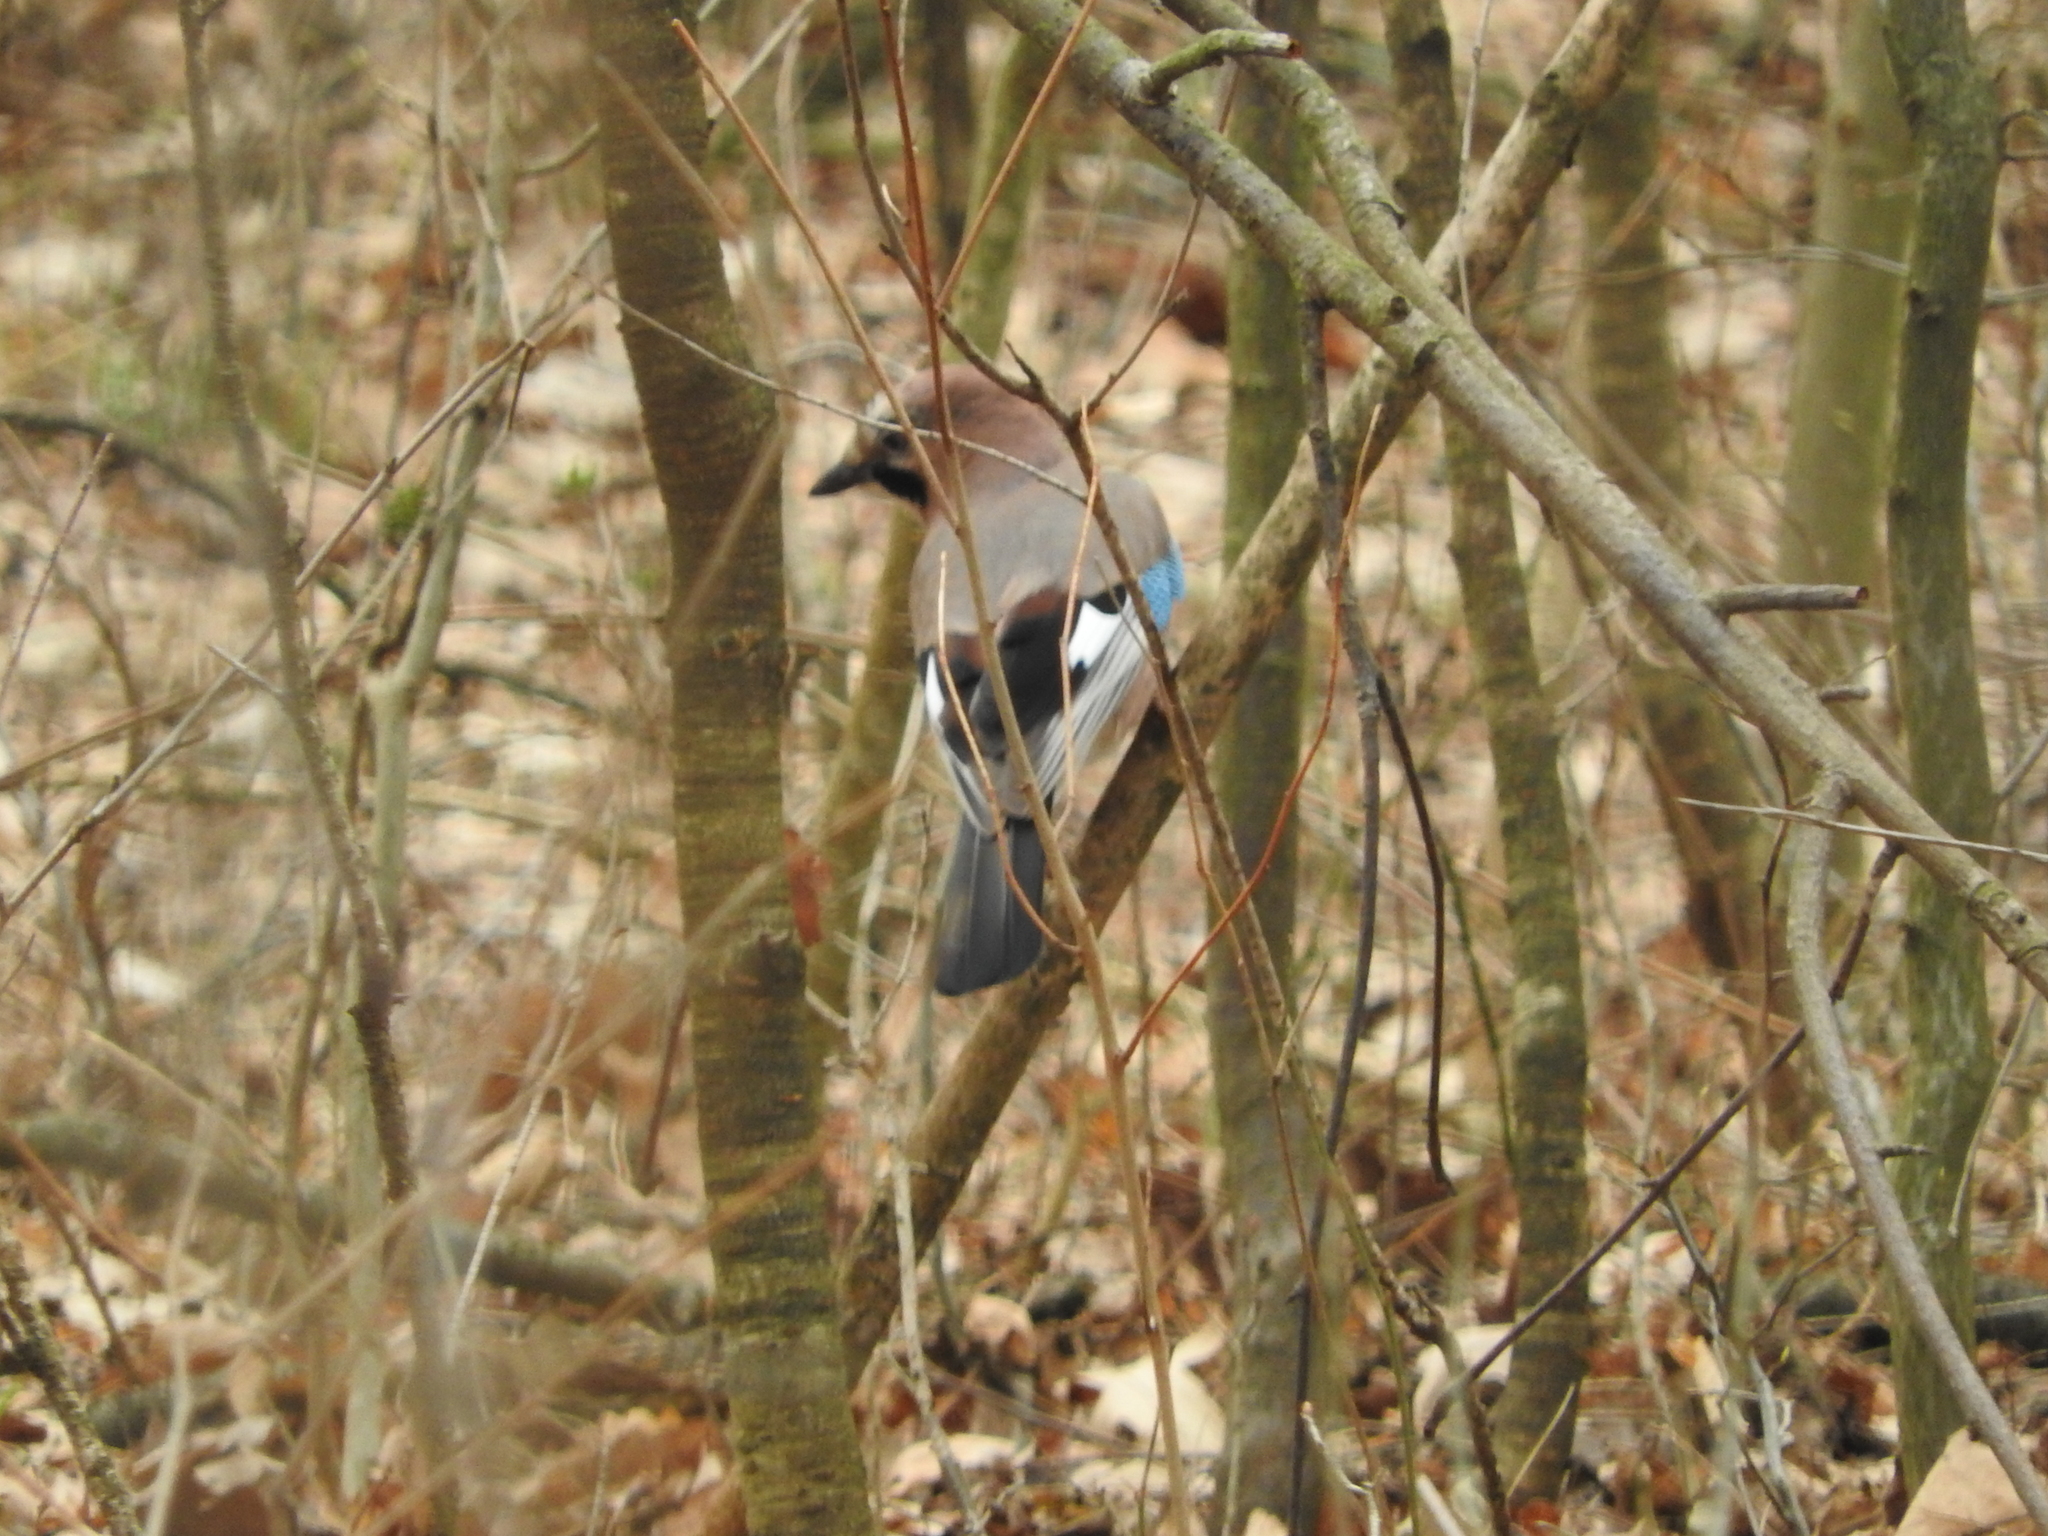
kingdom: Animalia
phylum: Chordata
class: Aves
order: Passeriformes
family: Corvidae
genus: Garrulus
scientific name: Garrulus glandarius
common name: Eurasian jay
